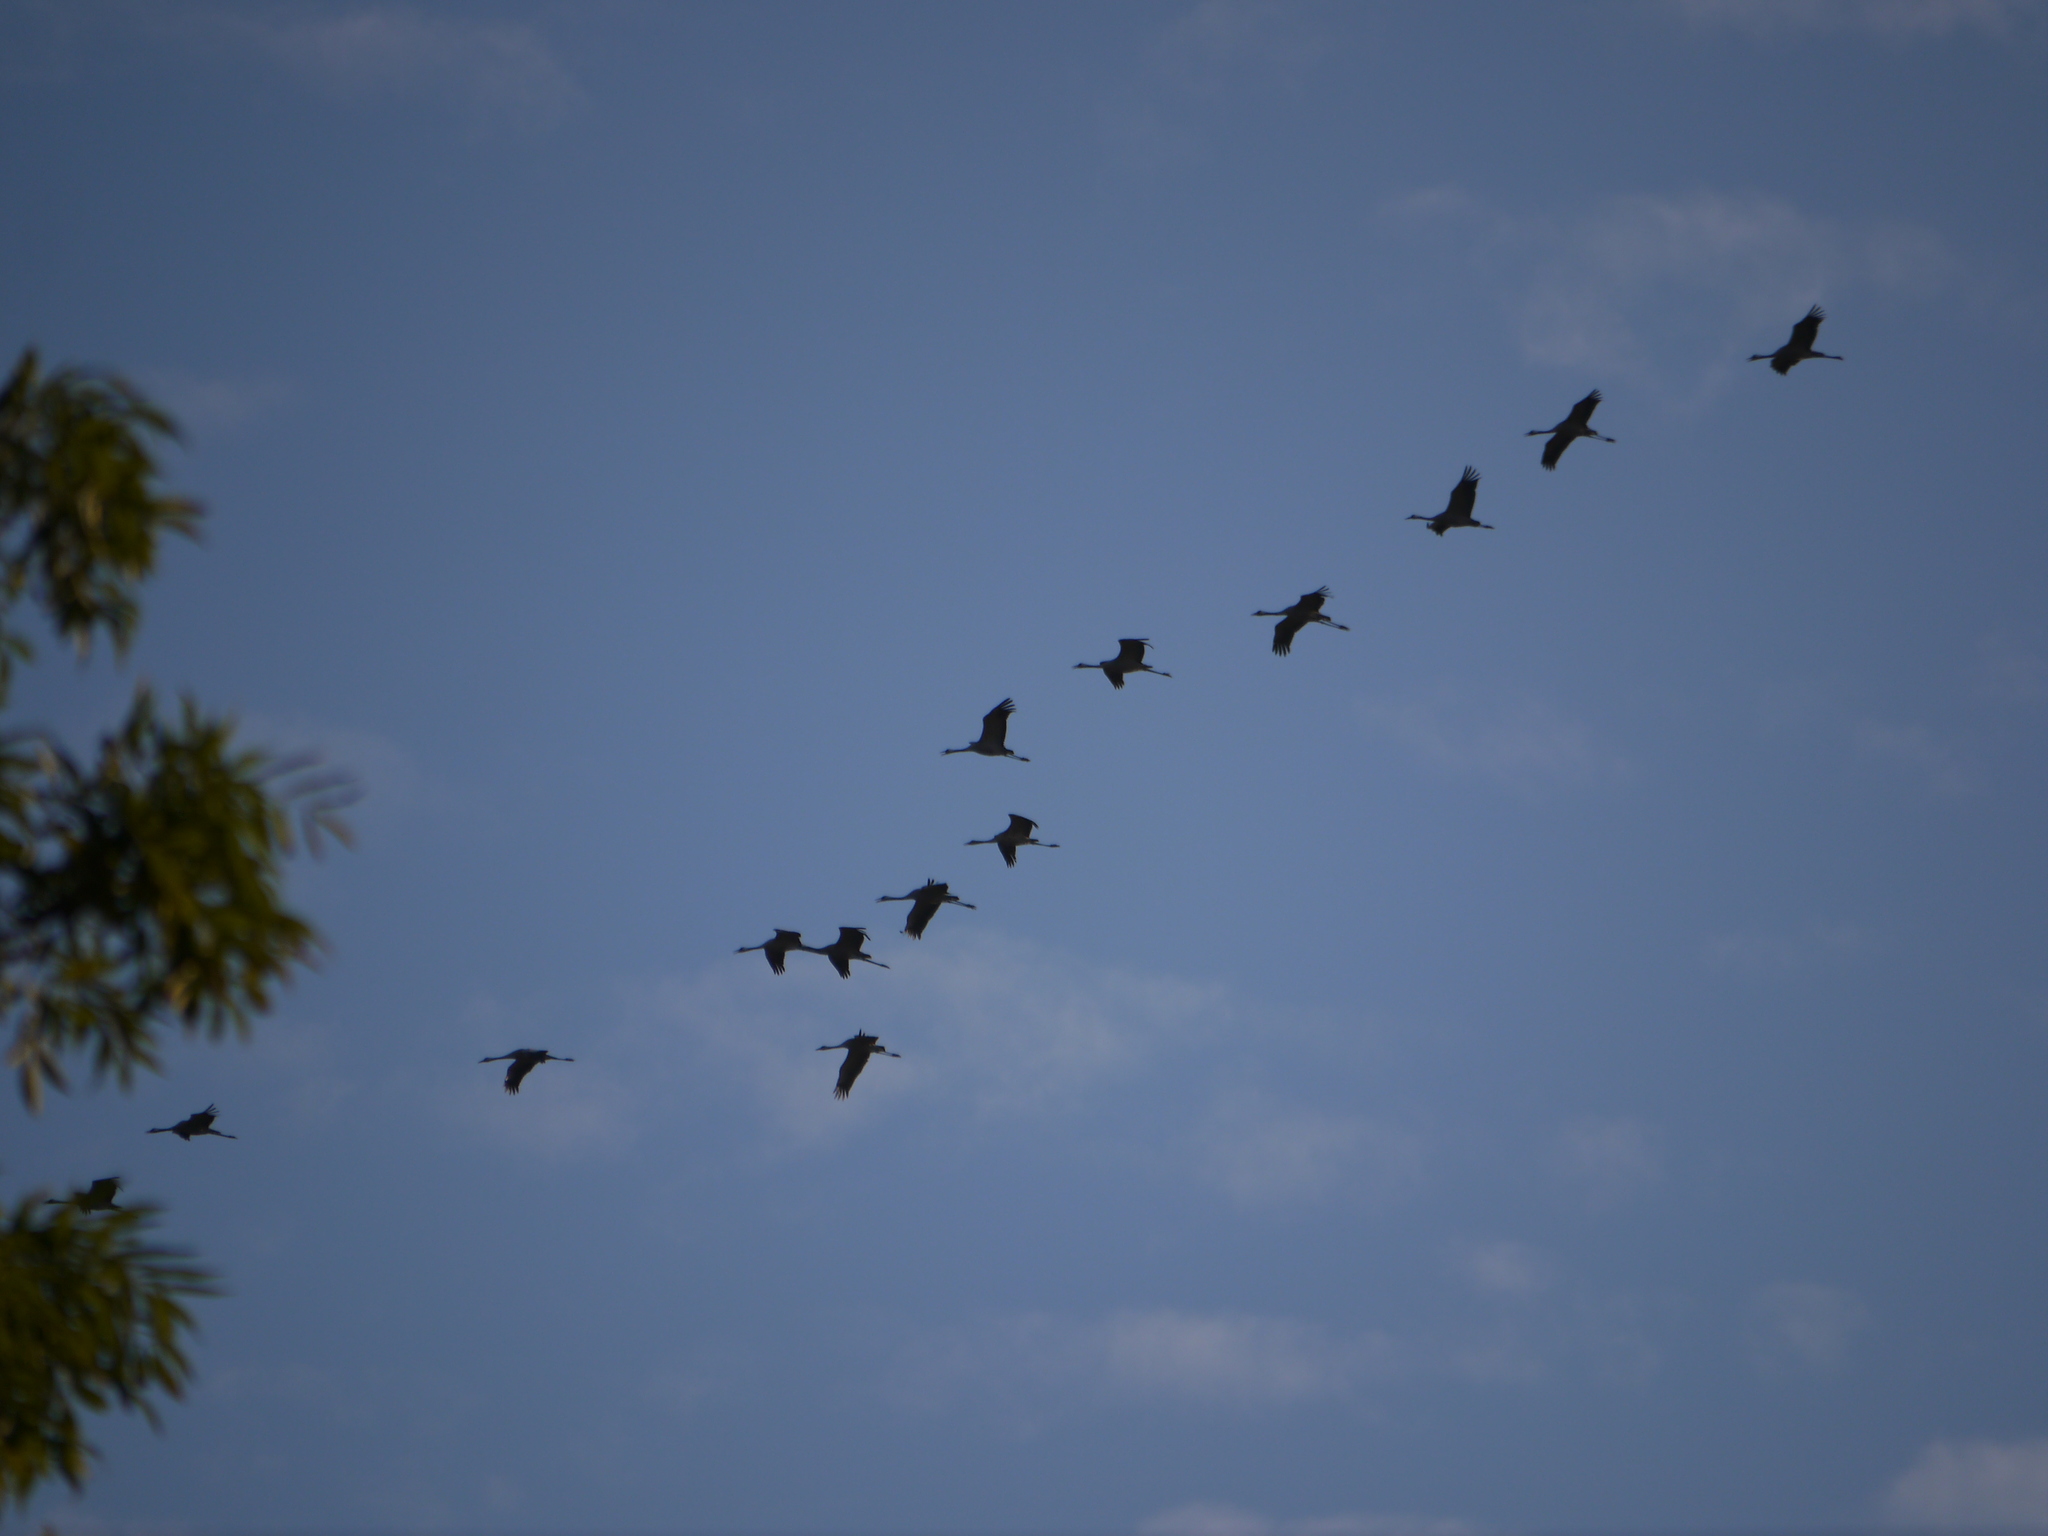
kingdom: Animalia
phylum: Chordata
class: Aves
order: Gruiformes
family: Gruidae
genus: Grus
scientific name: Grus grus
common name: Common crane
